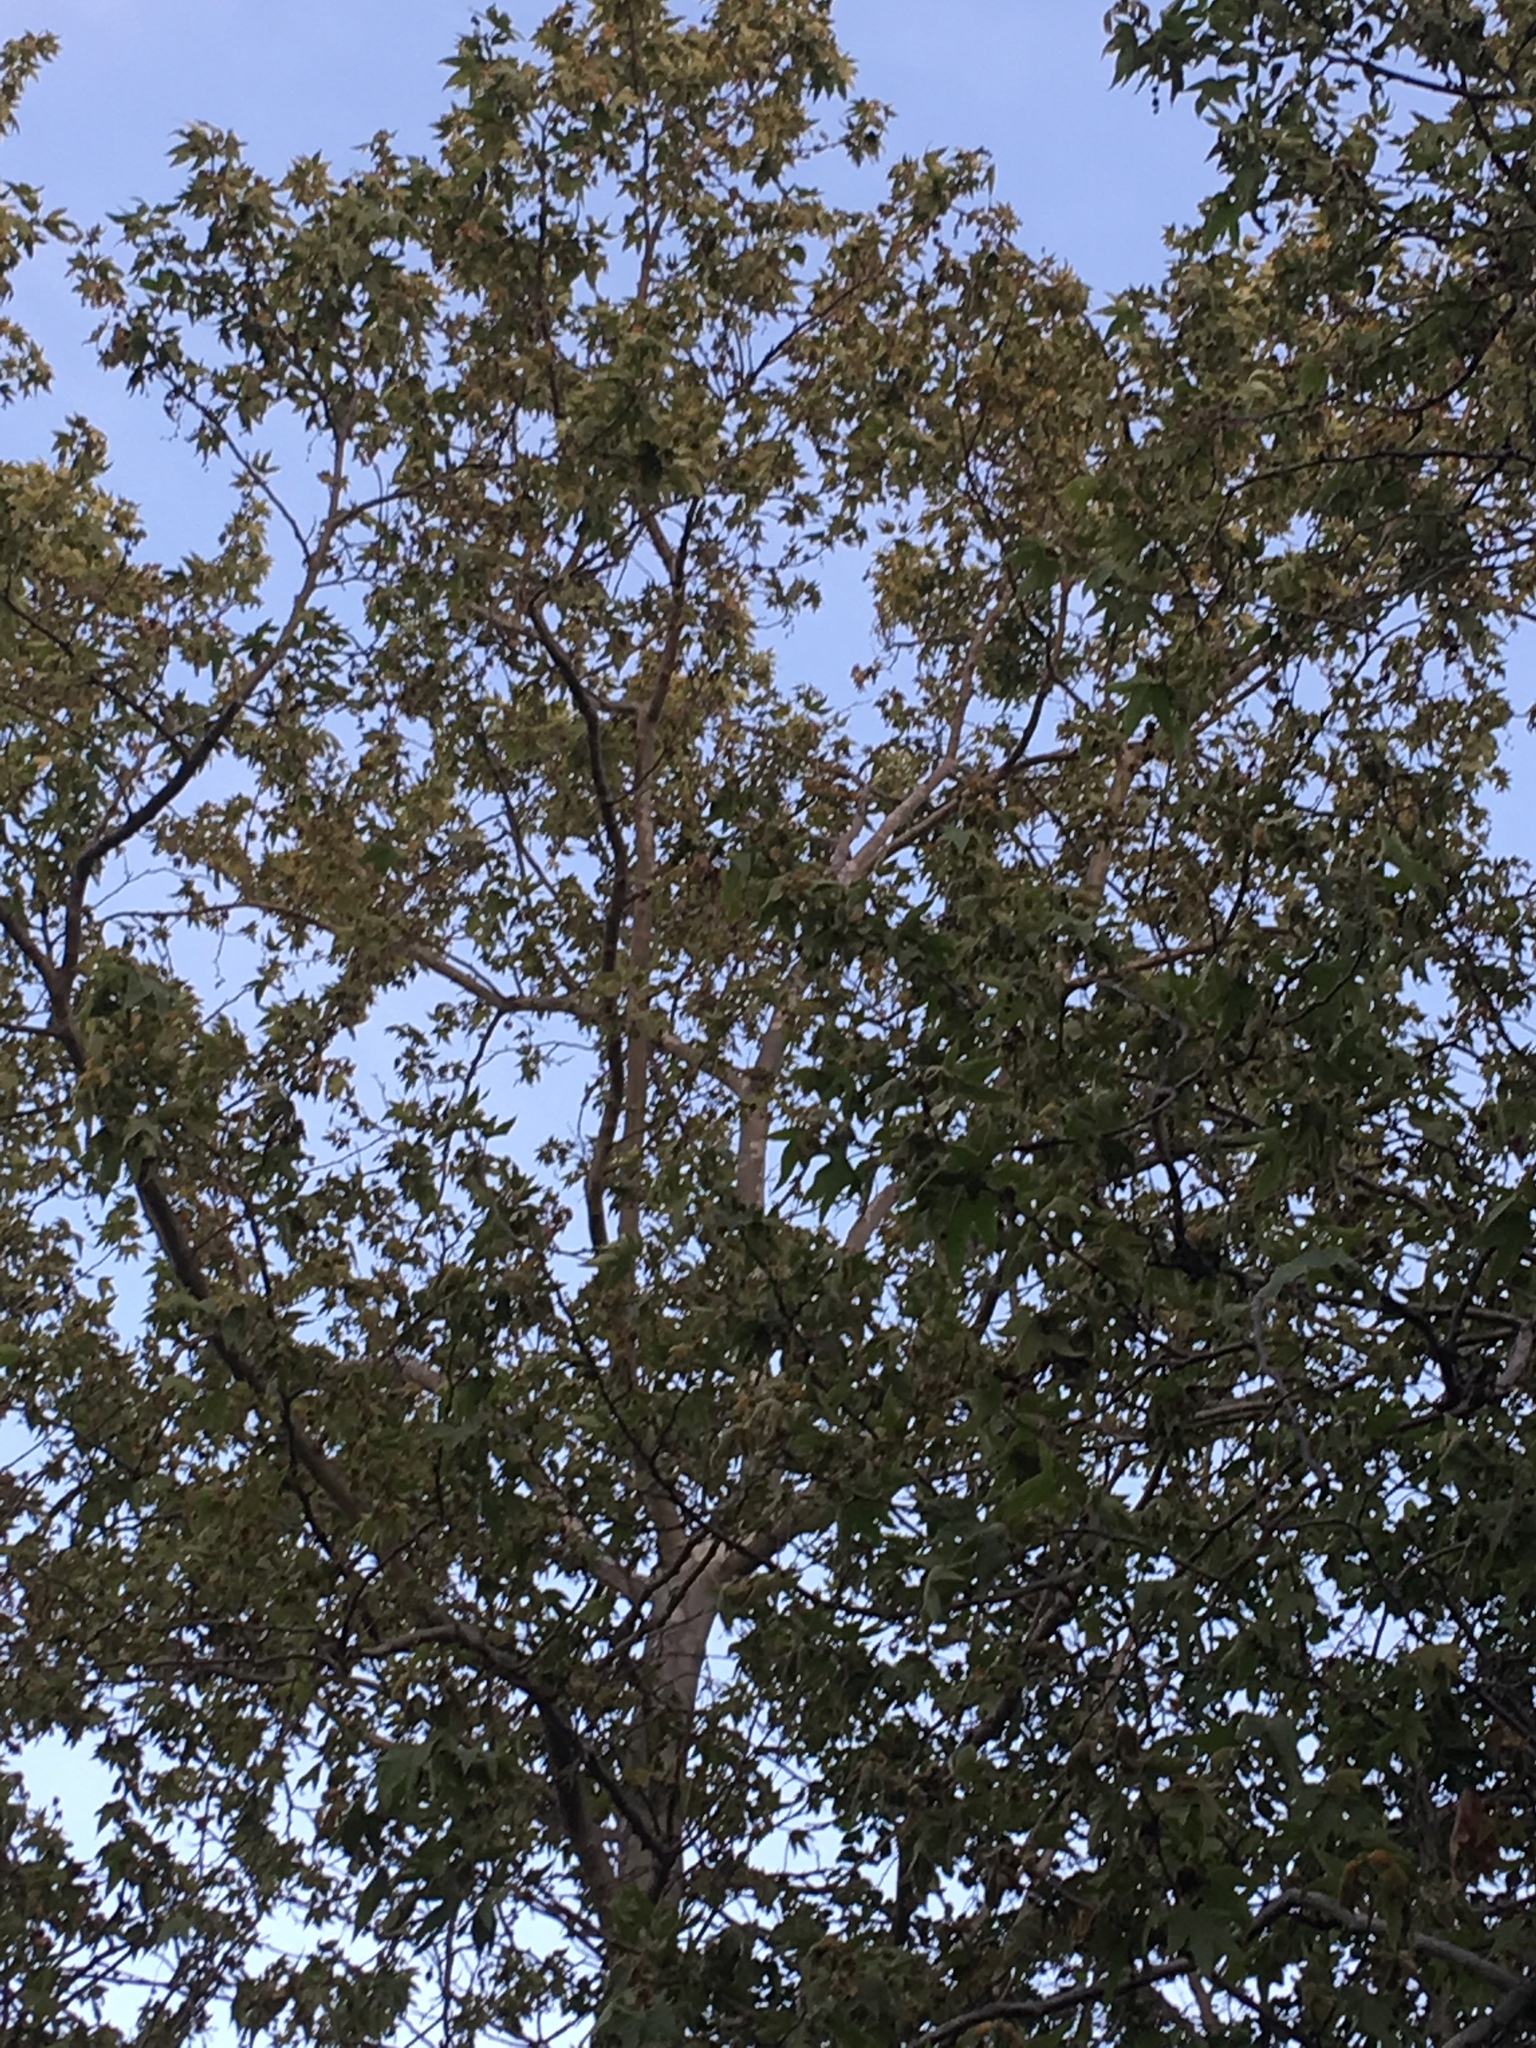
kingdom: Plantae
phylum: Tracheophyta
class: Magnoliopsida
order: Proteales
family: Platanaceae
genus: Platanus
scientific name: Platanus racemosa
